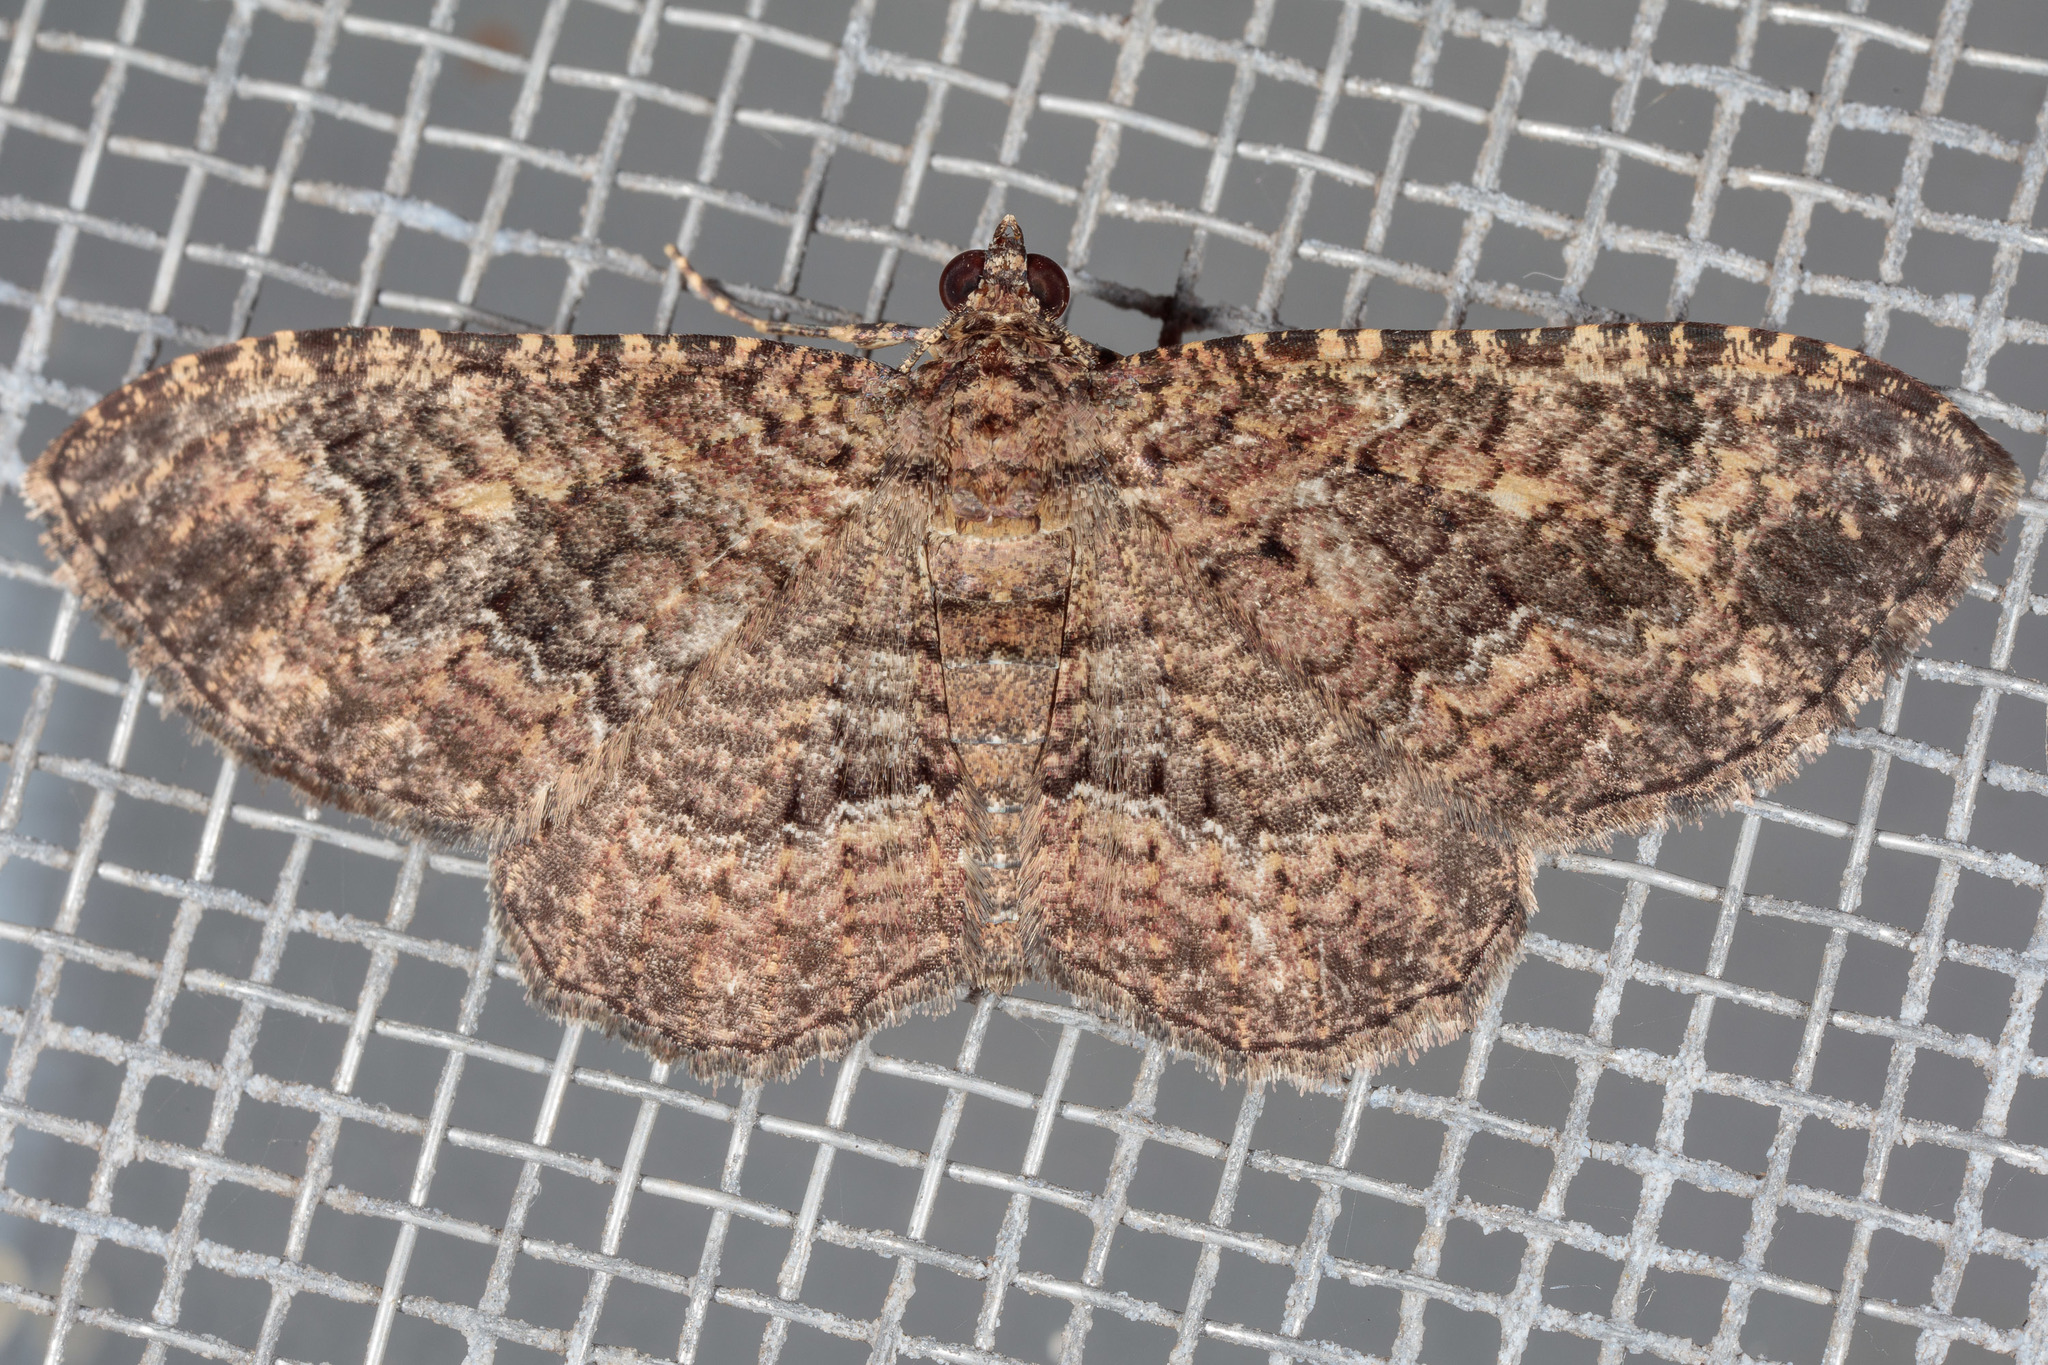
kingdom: Animalia
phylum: Arthropoda
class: Insecta
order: Lepidoptera
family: Geometridae
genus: Disclisioprocta
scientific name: Disclisioprocta stellata
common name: Somber carpet
